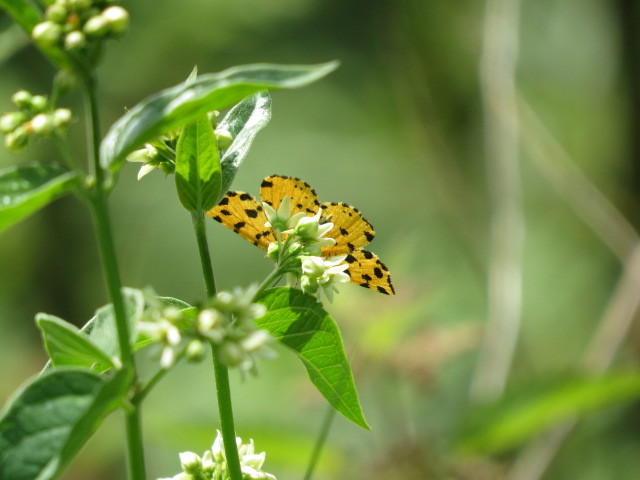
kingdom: Animalia
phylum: Arthropoda
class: Insecta
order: Lepidoptera
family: Geometridae
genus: Pseudopanthera
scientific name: Pseudopanthera macularia
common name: Speckled yellow
